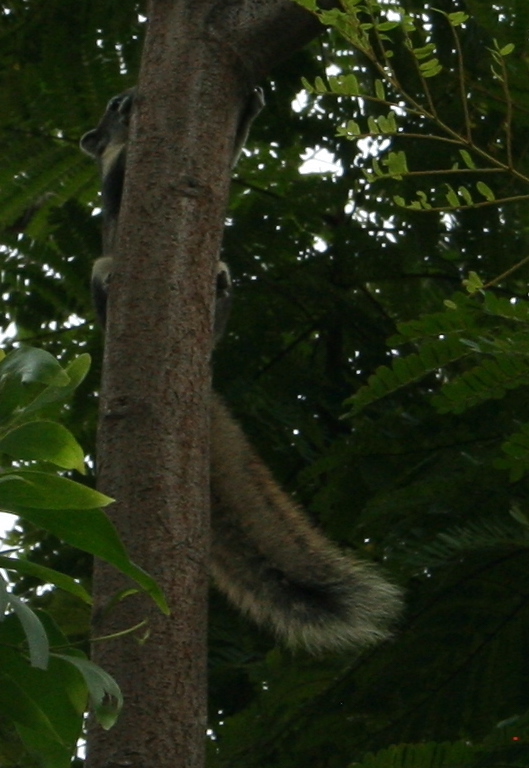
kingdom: Animalia
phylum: Chordata
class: Mammalia
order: Rodentia
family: Sciuridae
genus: Callosciurus
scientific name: Callosciurus finlaysonii
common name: Finlayson's squirrel
